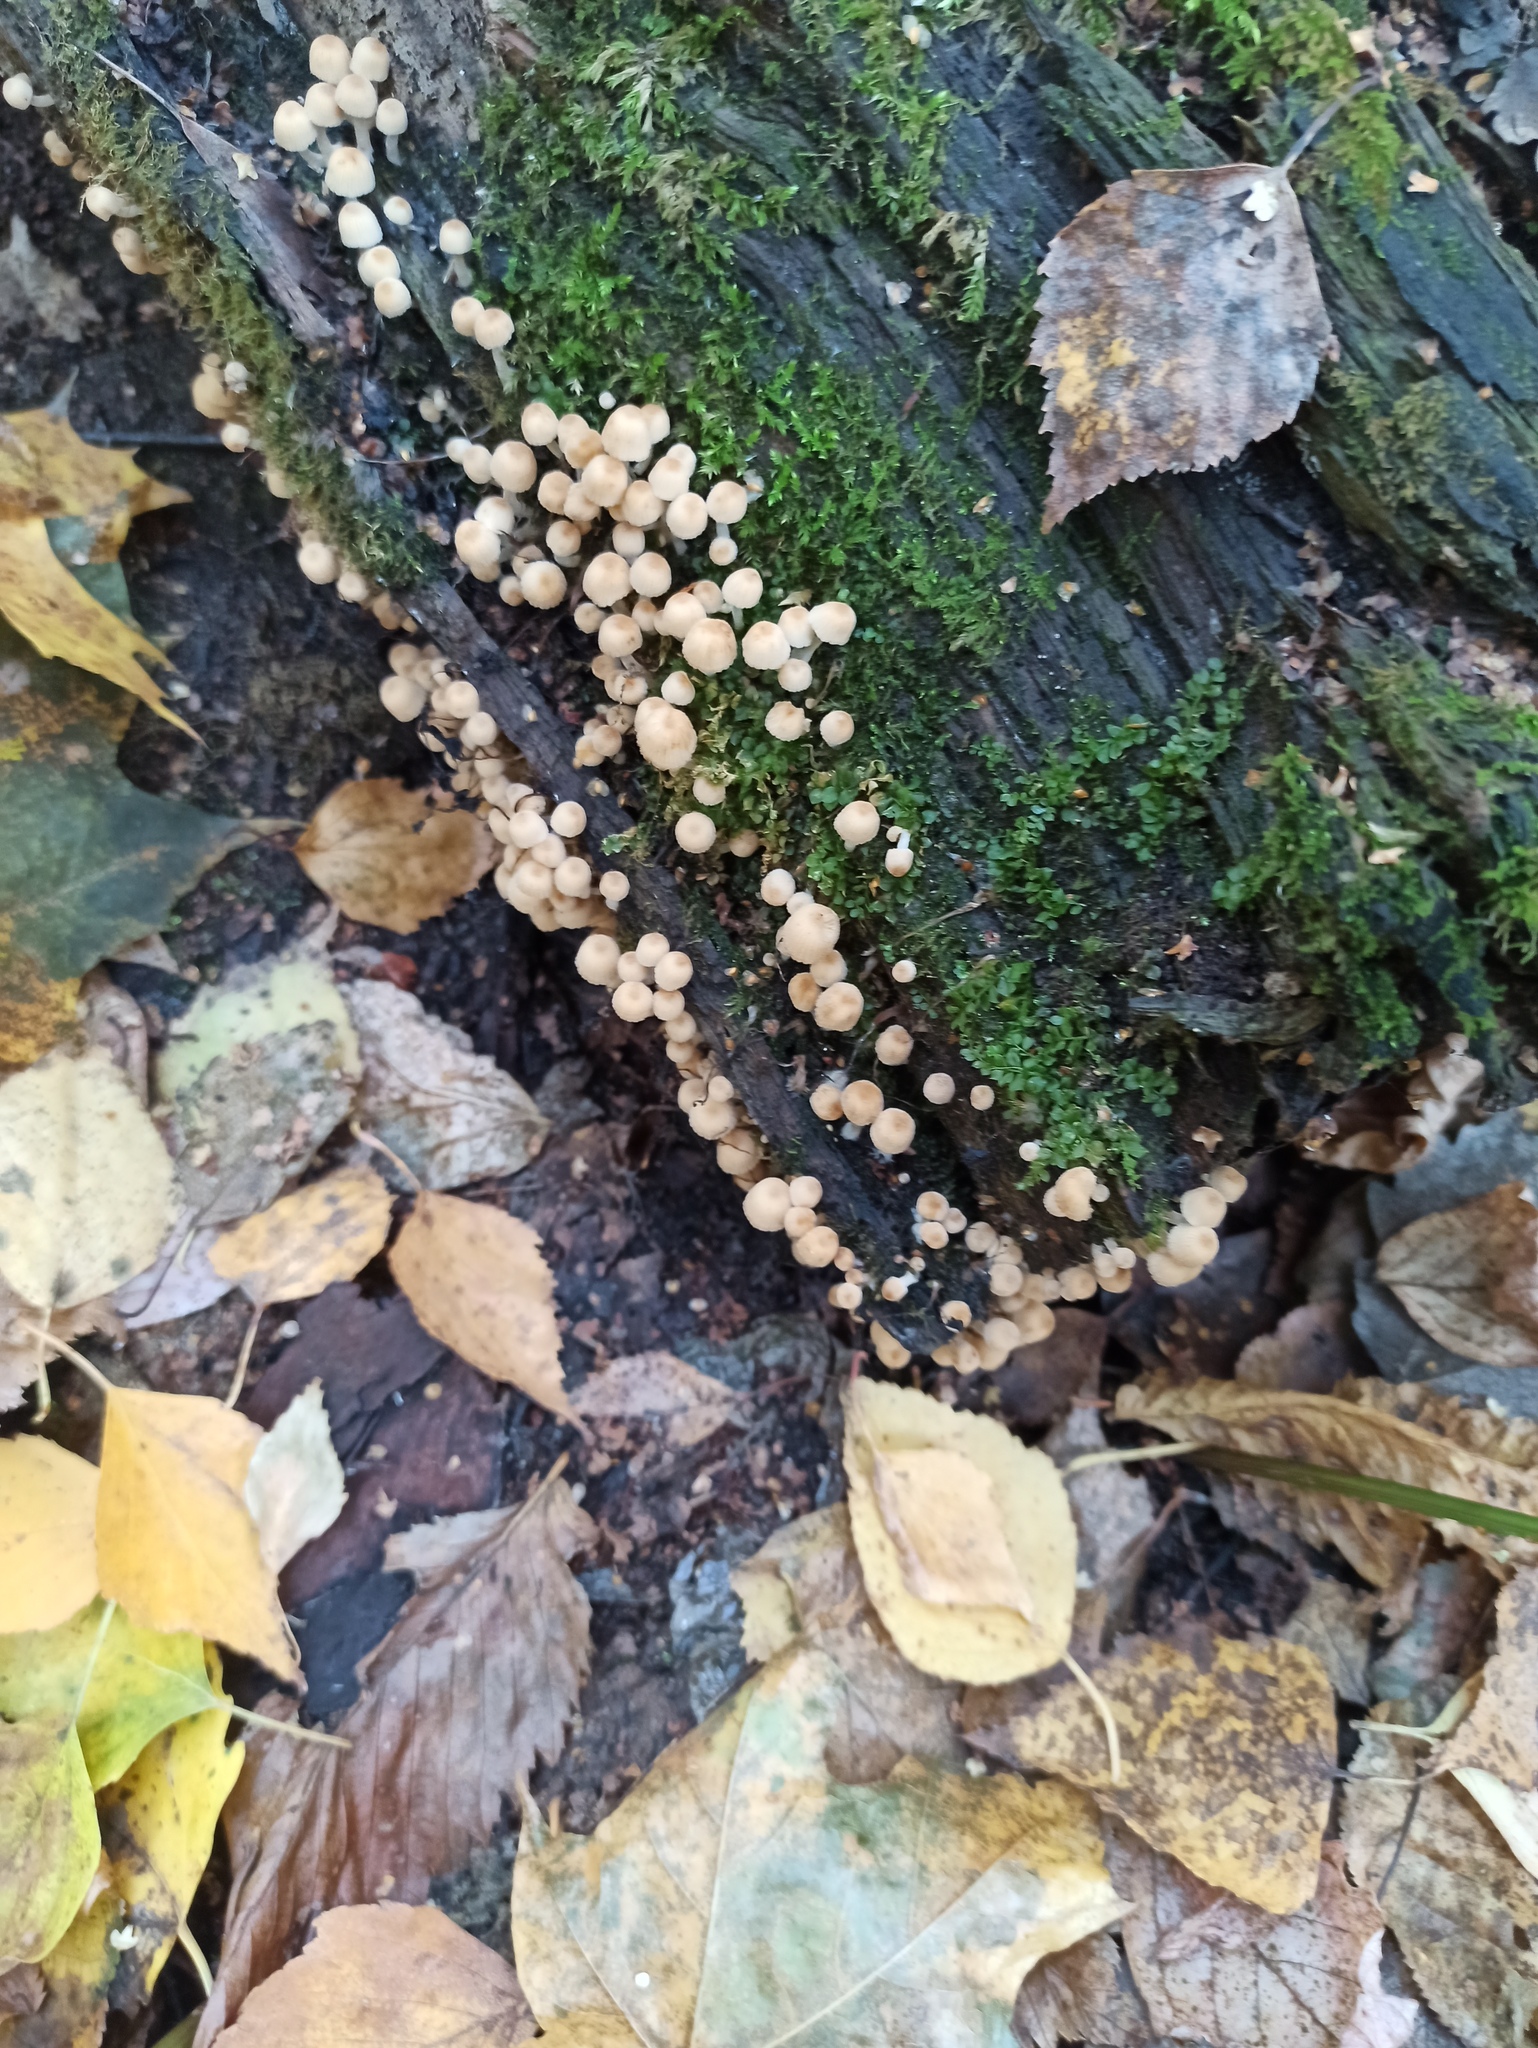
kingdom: Fungi
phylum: Basidiomycota
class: Agaricomycetes
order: Agaricales
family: Psathyrellaceae
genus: Coprinellus
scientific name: Coprinellus disseminatus
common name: Fairies' bonnets
